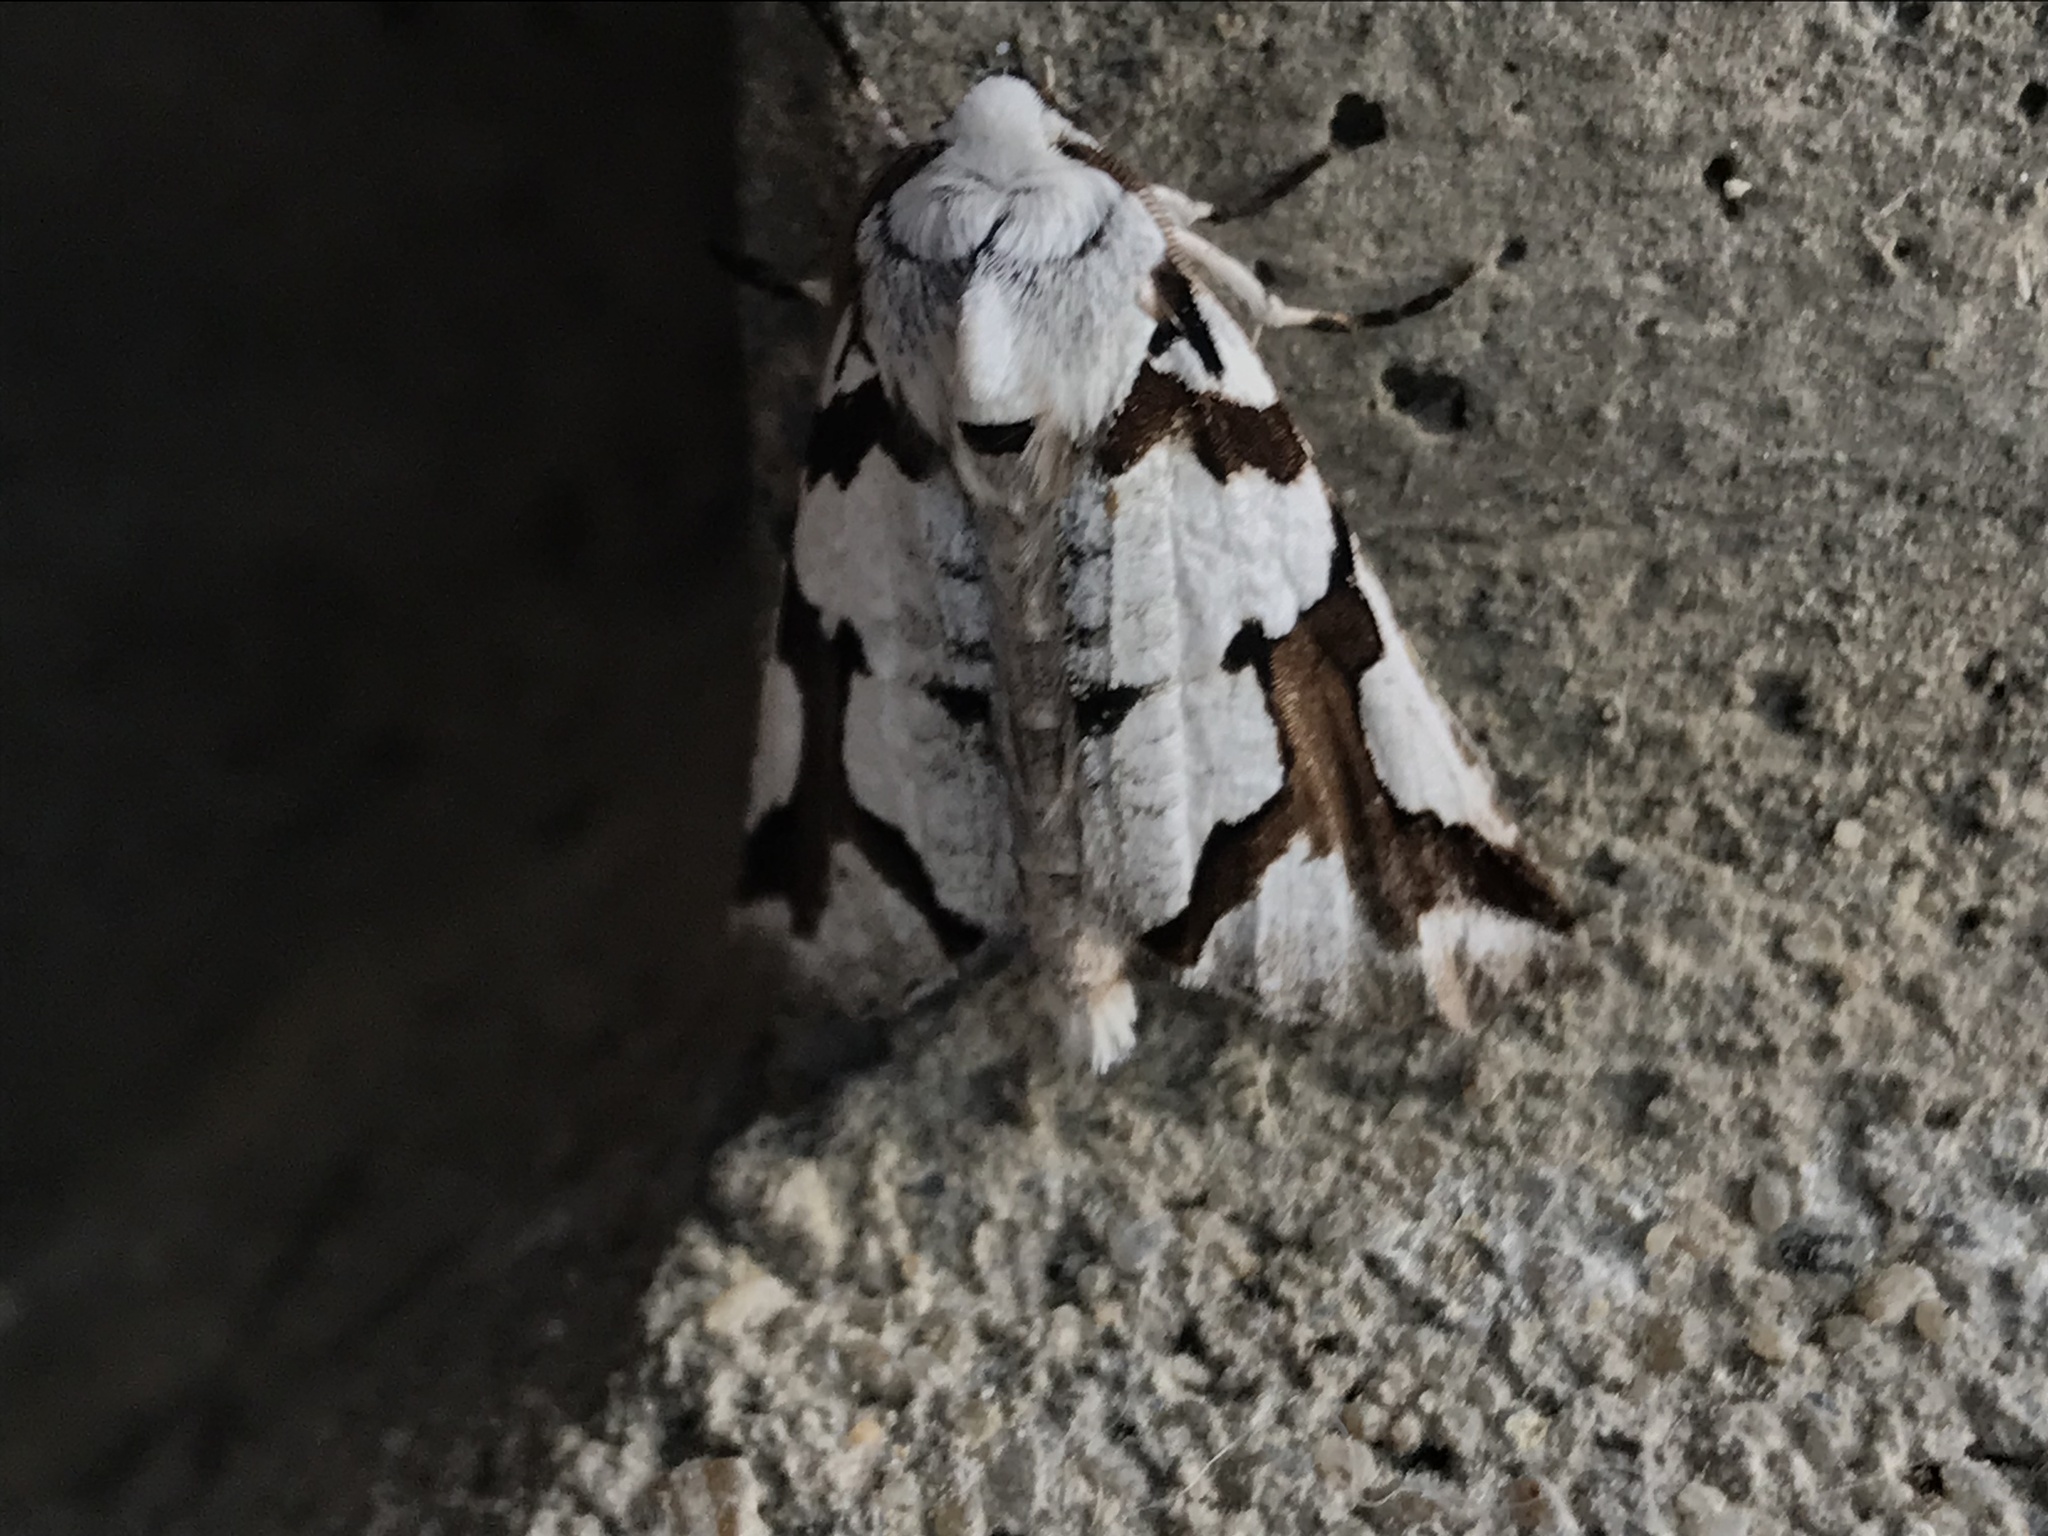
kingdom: Animalia
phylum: Arthropoda
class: Insecta
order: Lepidoptera
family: Geometridae
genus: Declana
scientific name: Declana
